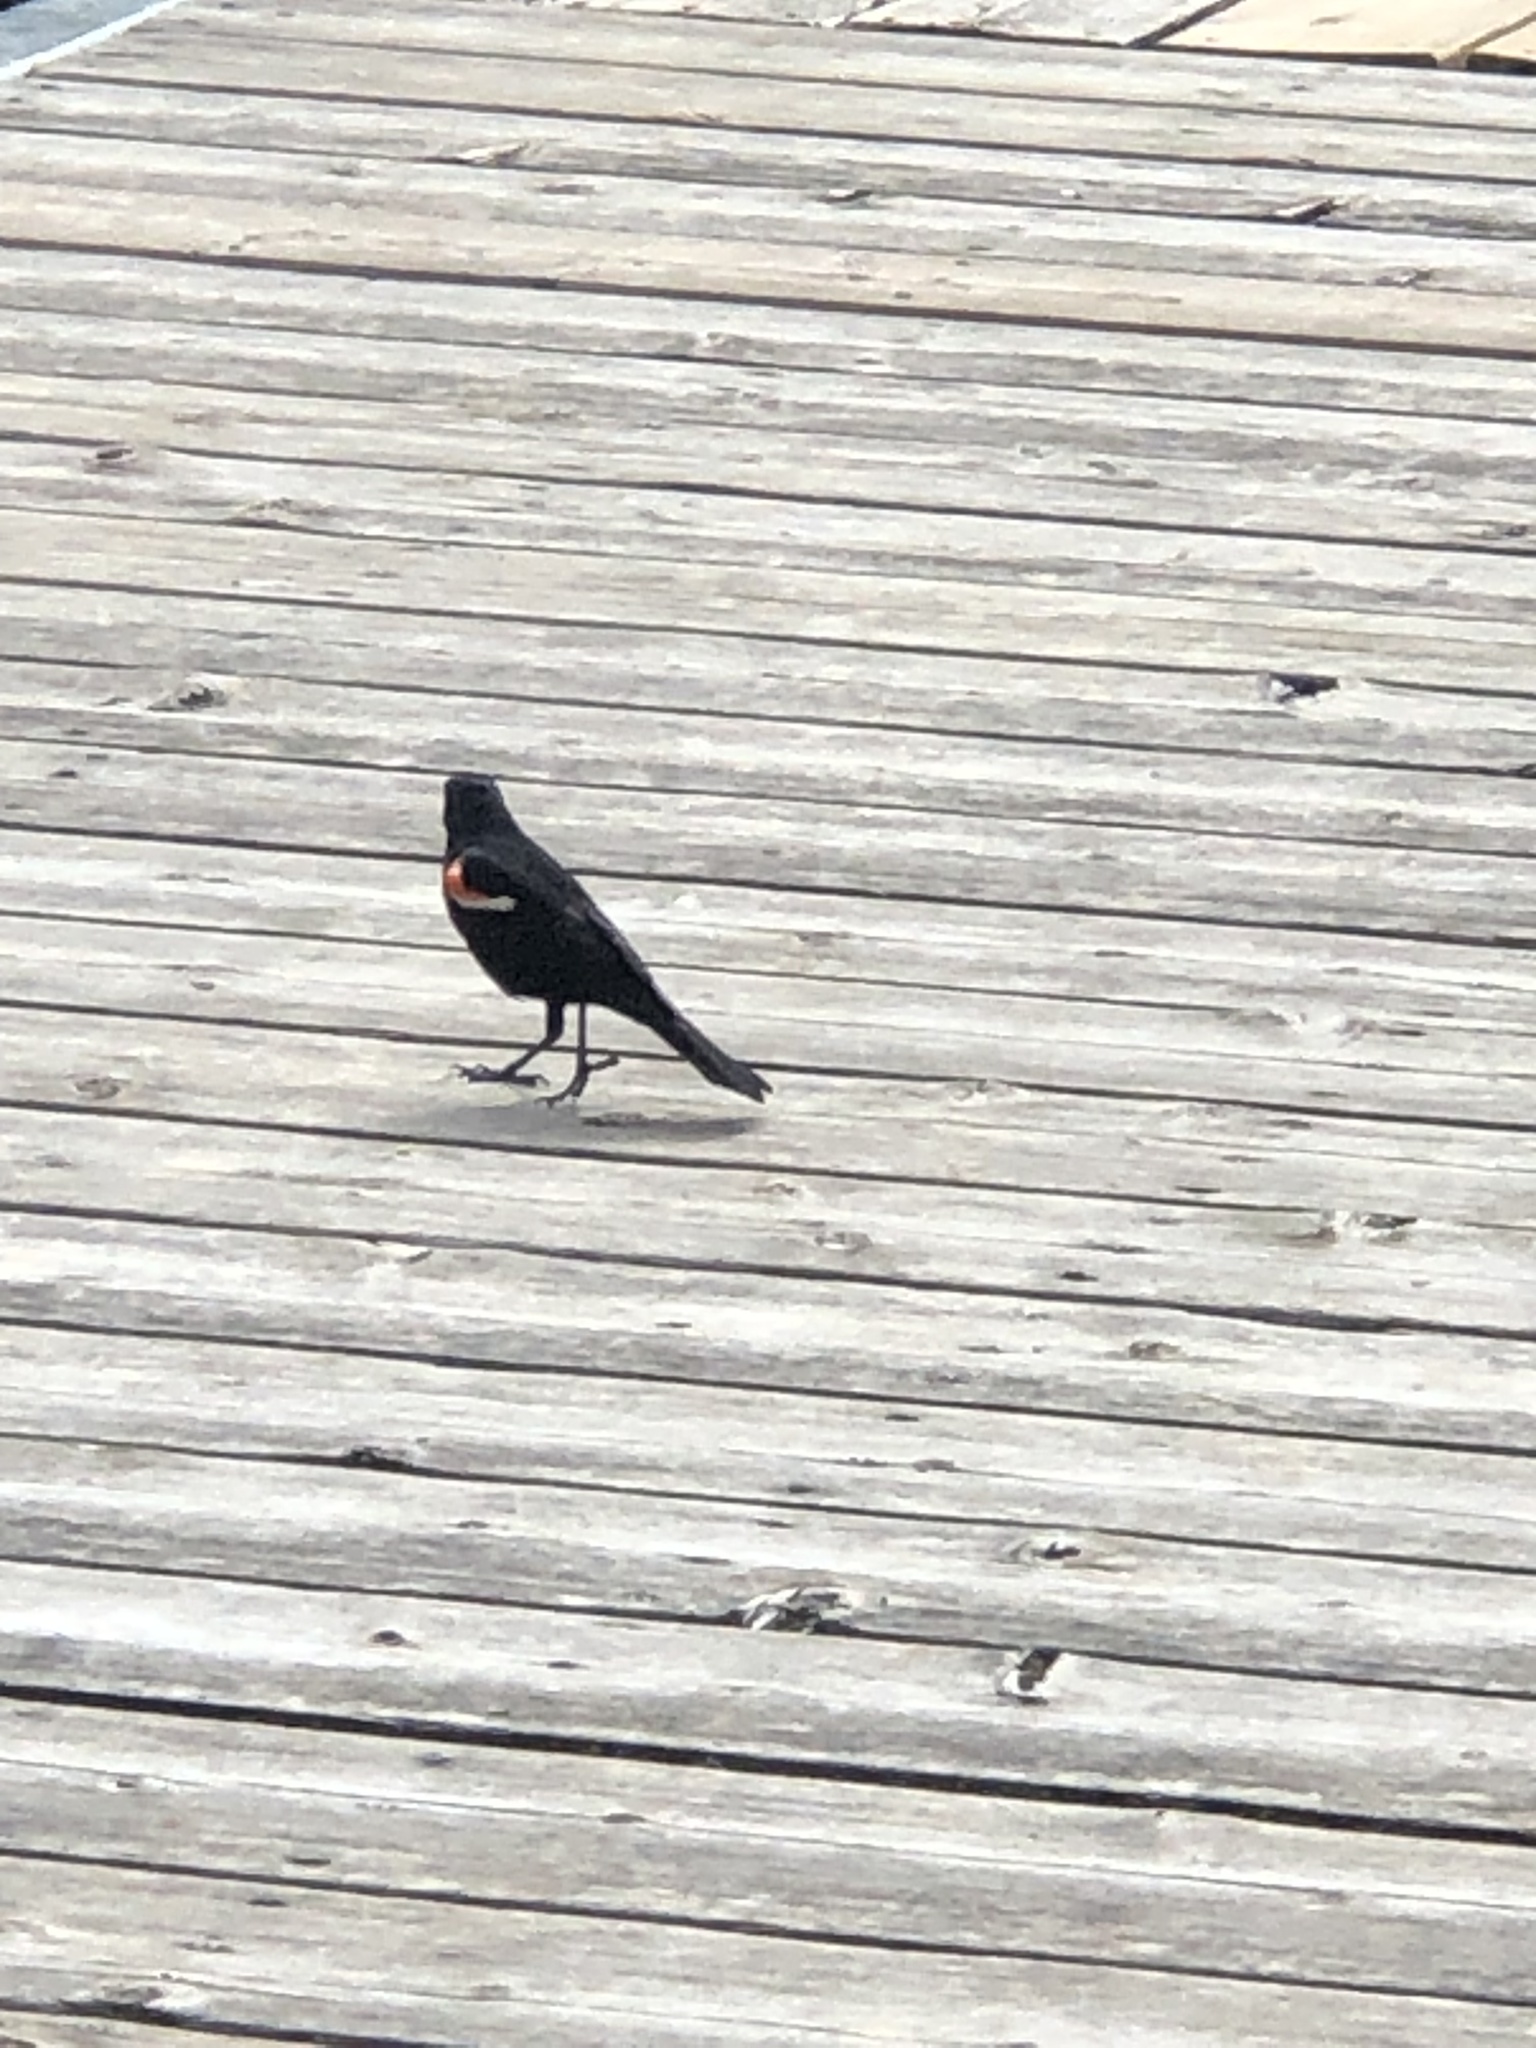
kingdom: Animalia
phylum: Chordata
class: Aves
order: Passeriformes
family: Icteridae
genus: Agelaius
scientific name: Agelaius phoeniceus
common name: Red-winged blackbird
